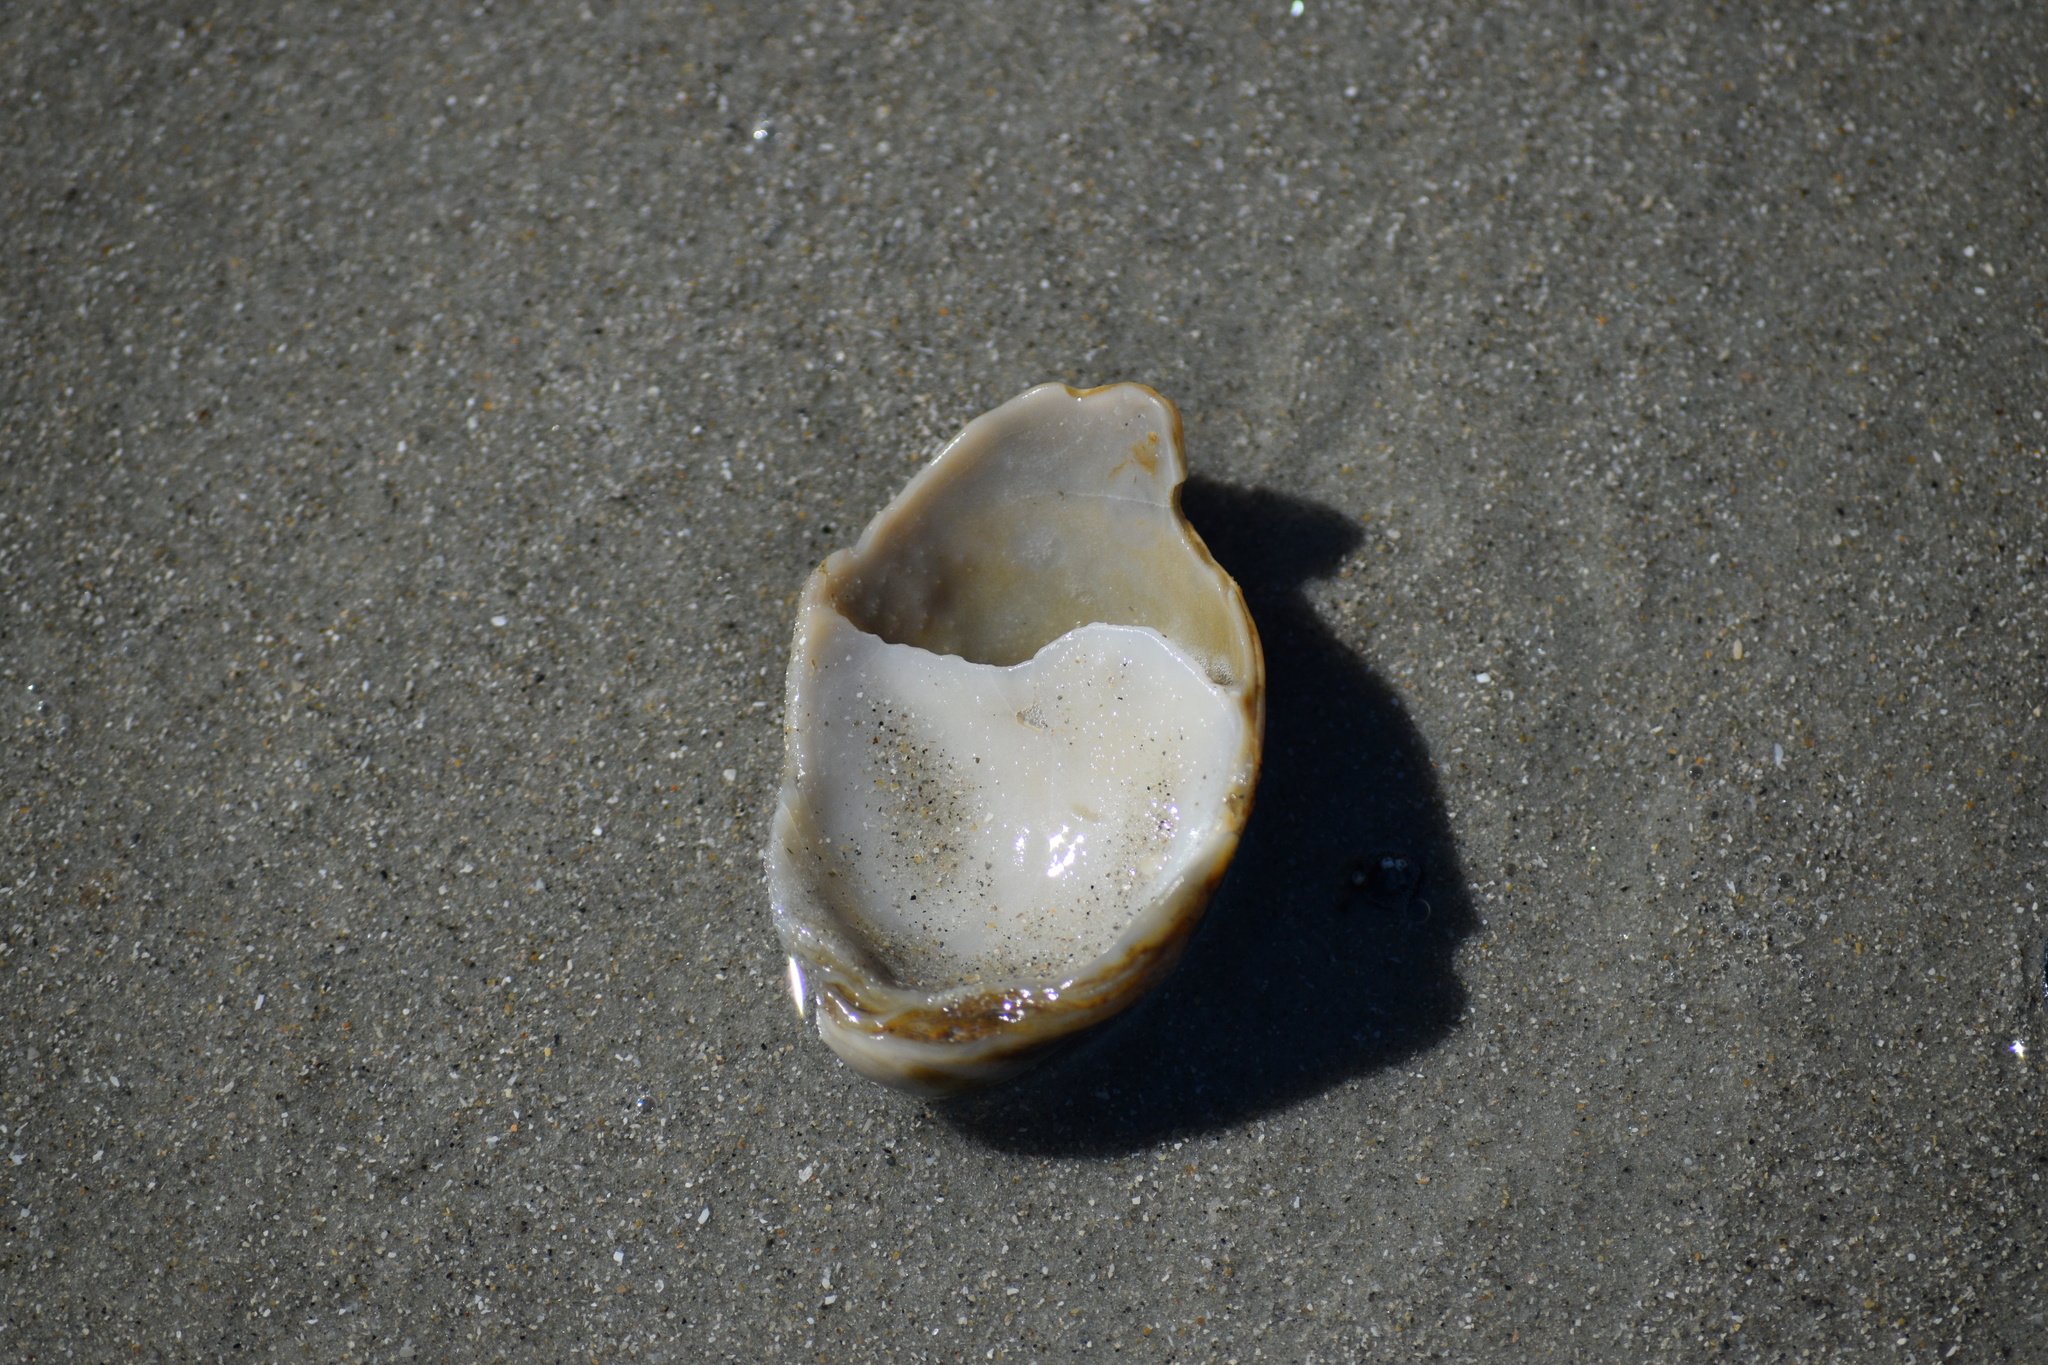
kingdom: Animalia
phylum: Mollusca
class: Gastropoda
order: Littorinimorpha
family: Calyptraeidae
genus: Crepidula
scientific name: Crepidula fornicata
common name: Slipper limpet
